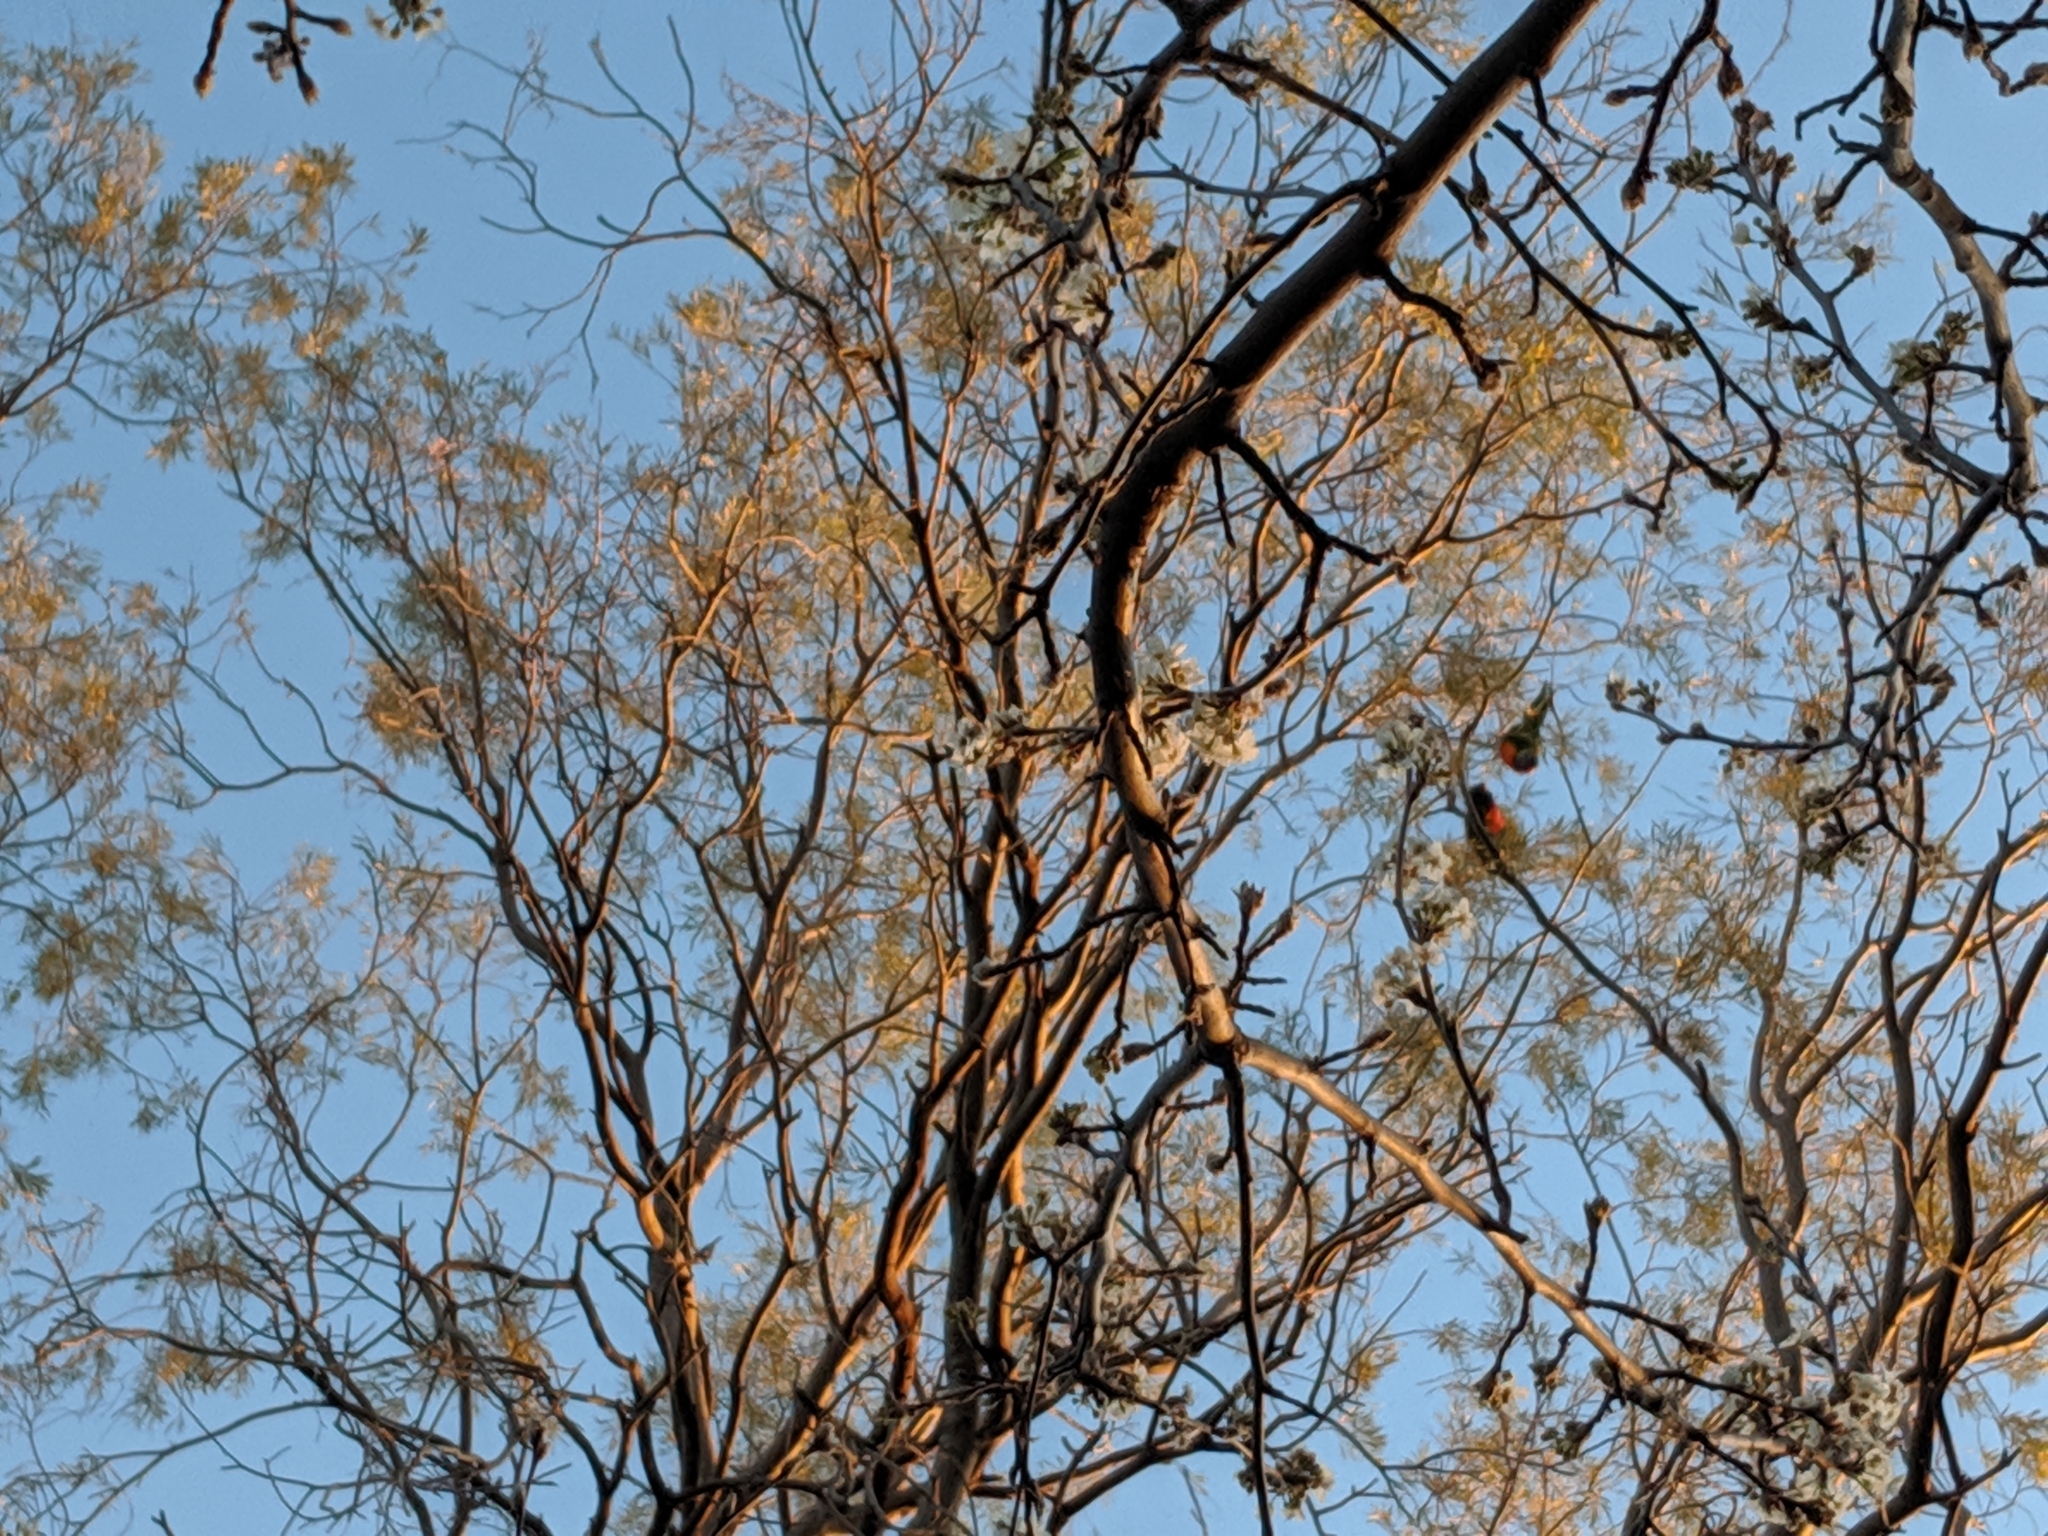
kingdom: Animalia
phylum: Chordata
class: Aves
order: Psittaciformes
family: Psittacidae
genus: Trichoglossus
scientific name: Trichoglossus haematodus
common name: Coconut lorikeet
